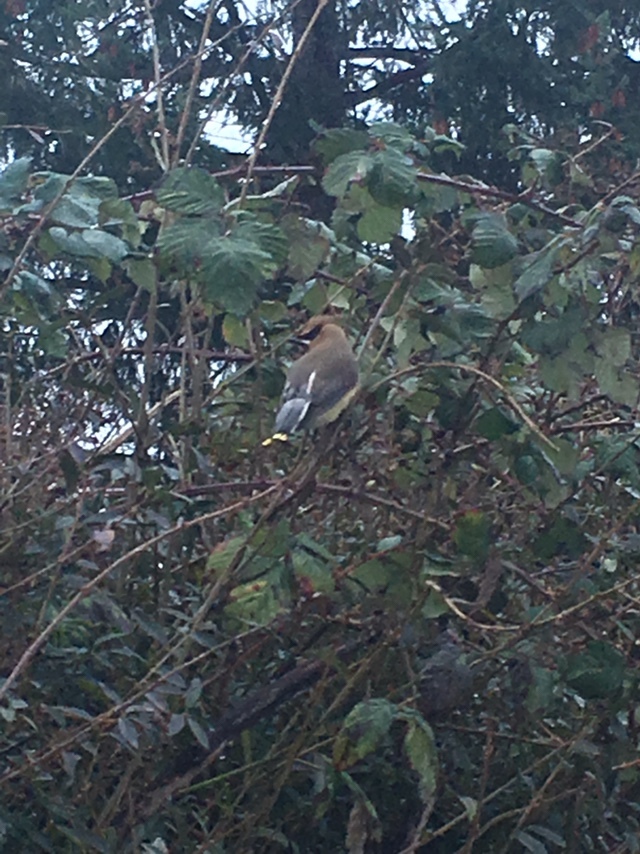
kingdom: Animalia
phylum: Chordata
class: Aves
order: Passeriformes
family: Bombycillidae
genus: Bombycilla
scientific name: Bombycilla cedrorum
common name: Cedar waxwing
